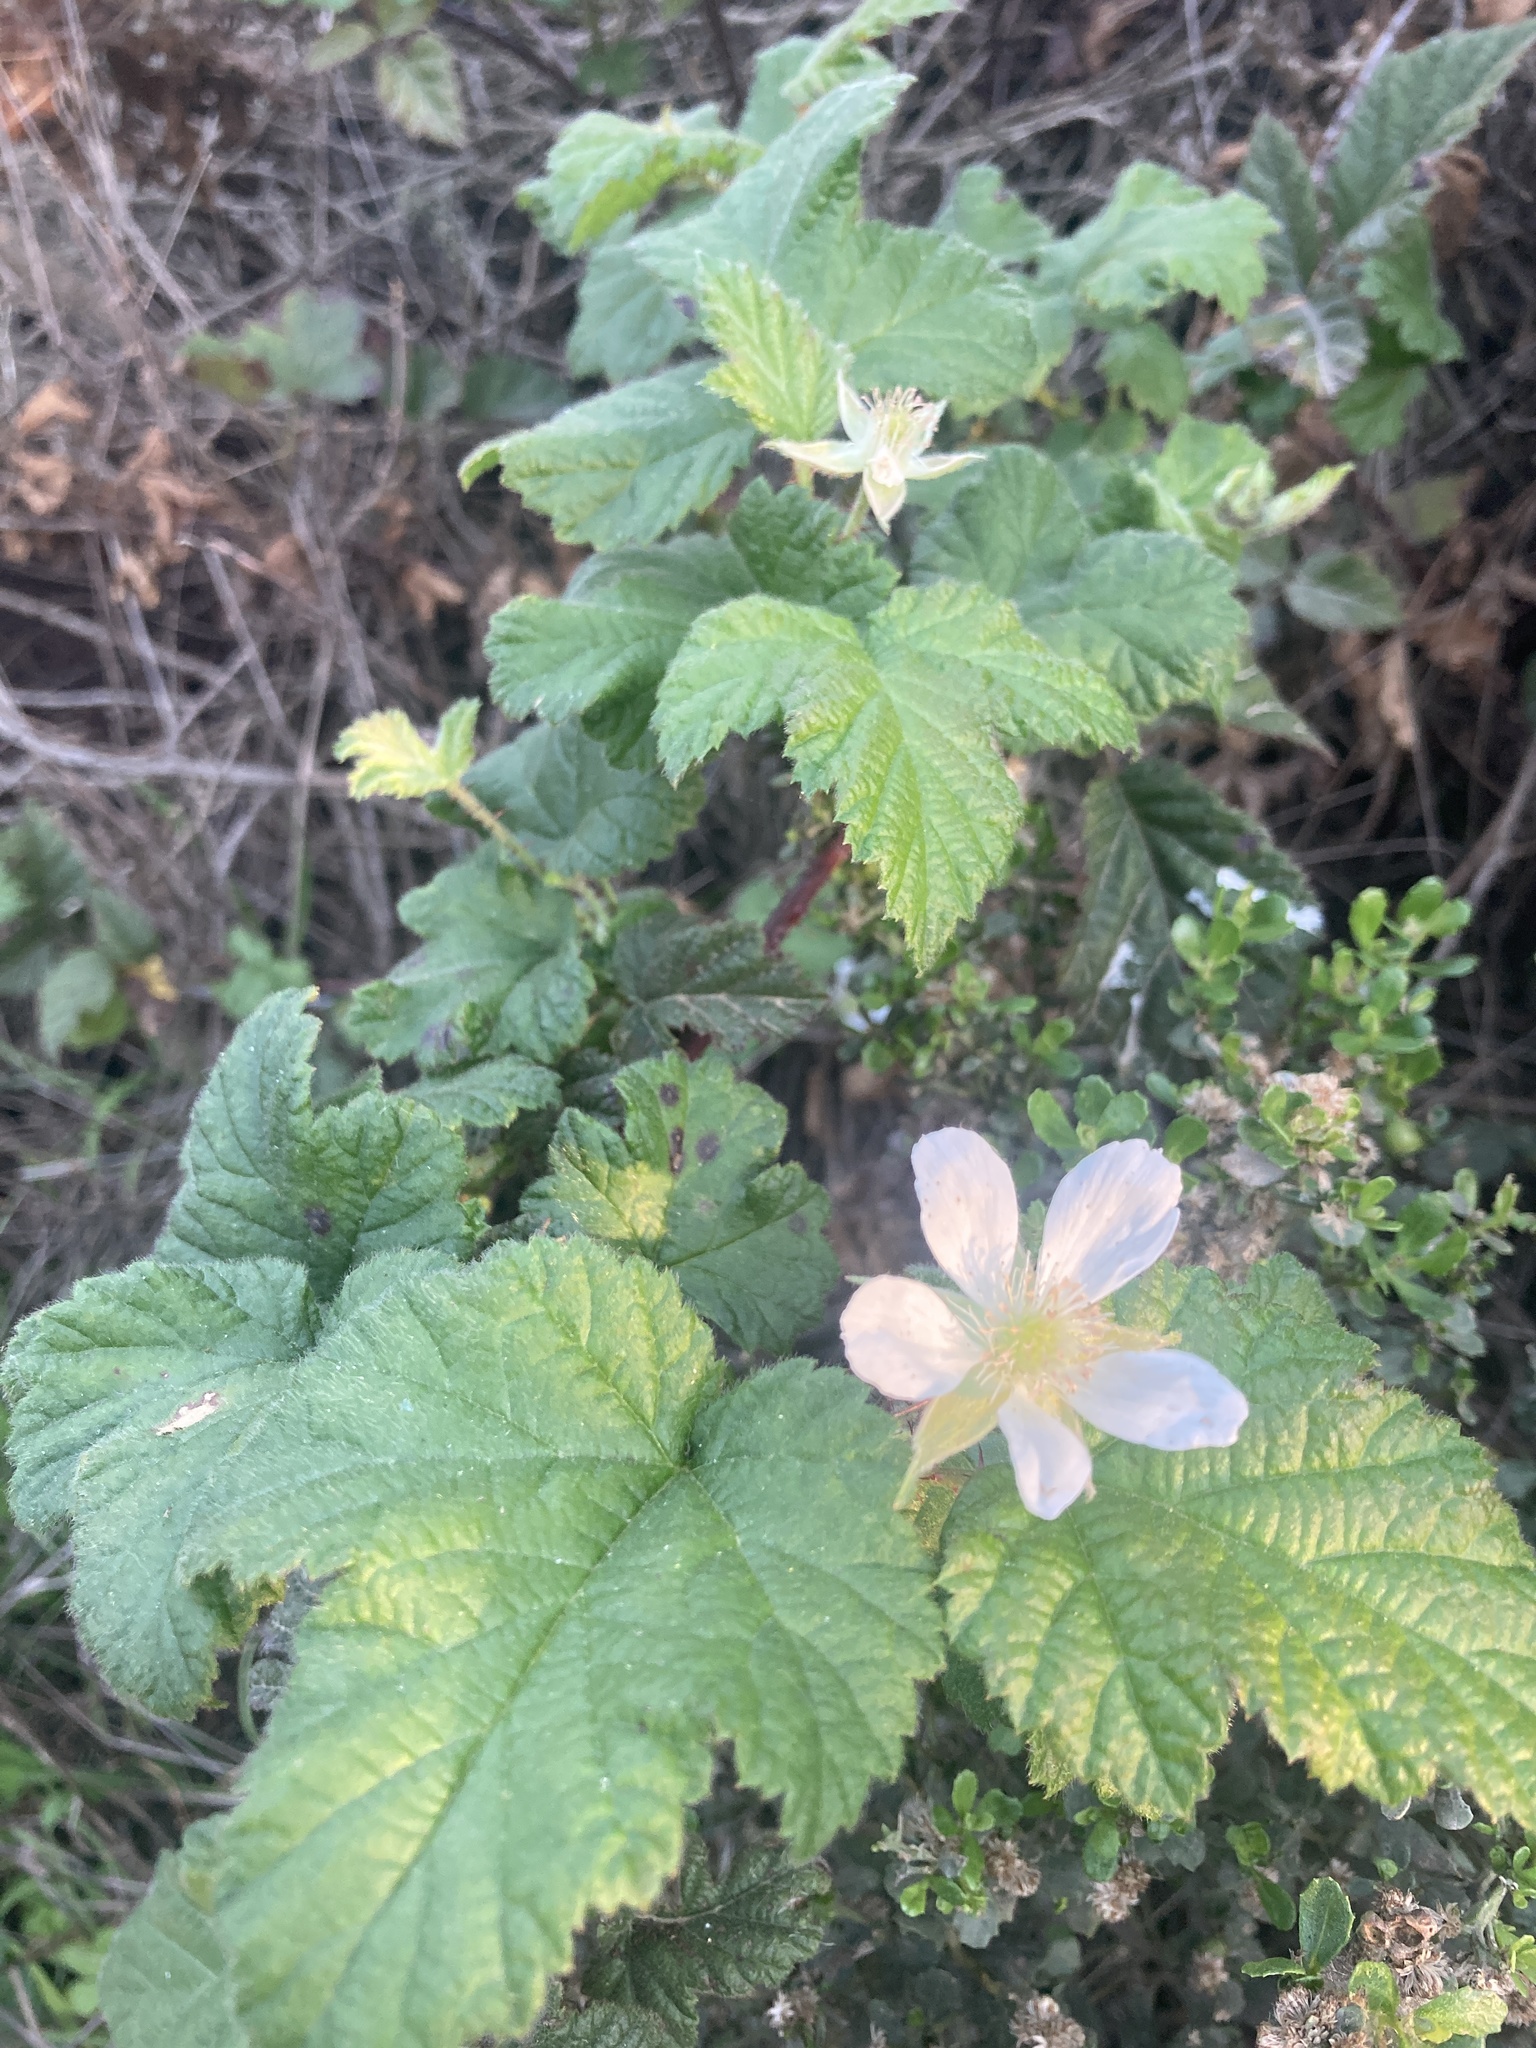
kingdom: Plantae
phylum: Tracheophyta
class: Magnoliopsida
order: Rosales
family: Rosaceae
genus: Rubus
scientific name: Rubus ursinus
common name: Pacific blackberry
